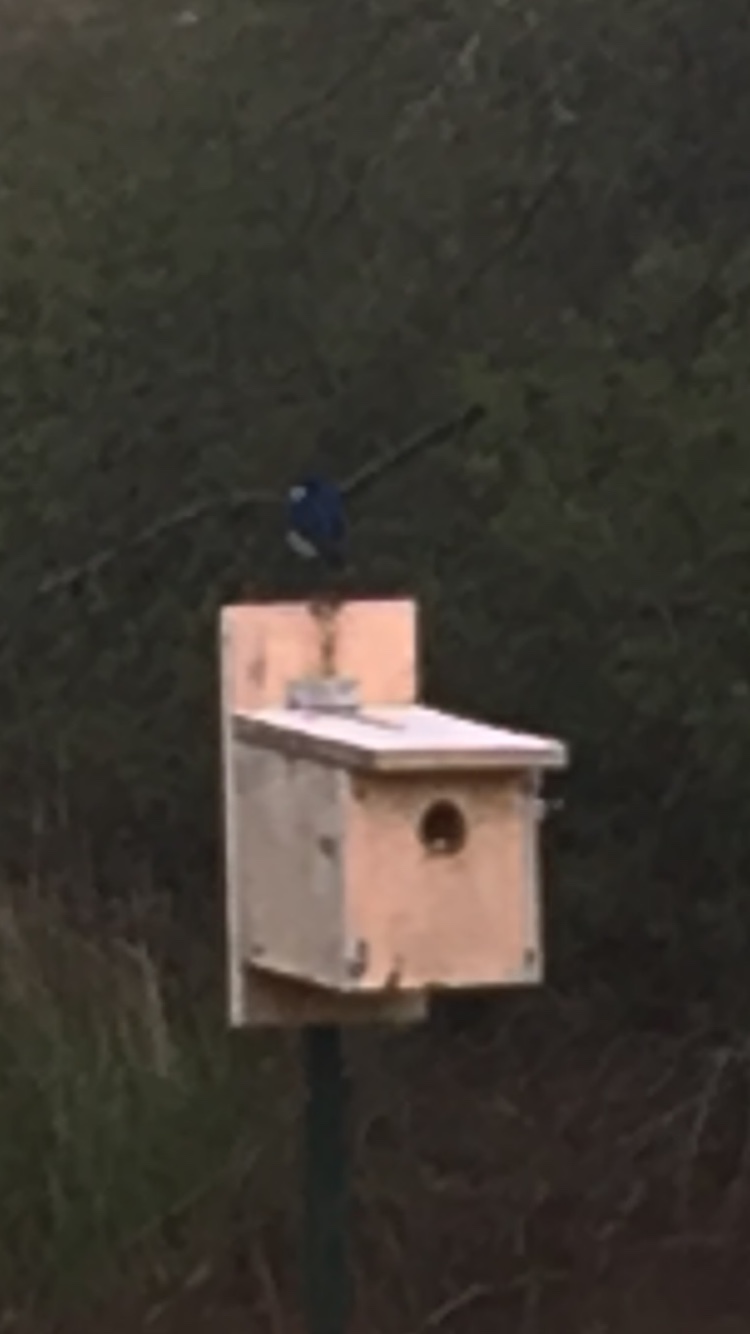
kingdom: Animalia
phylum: Chordata
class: Aves
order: Passeriformes
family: Hirundinidae
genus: Tachycineta
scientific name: Tachycineta bicolor
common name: Tree swallow
